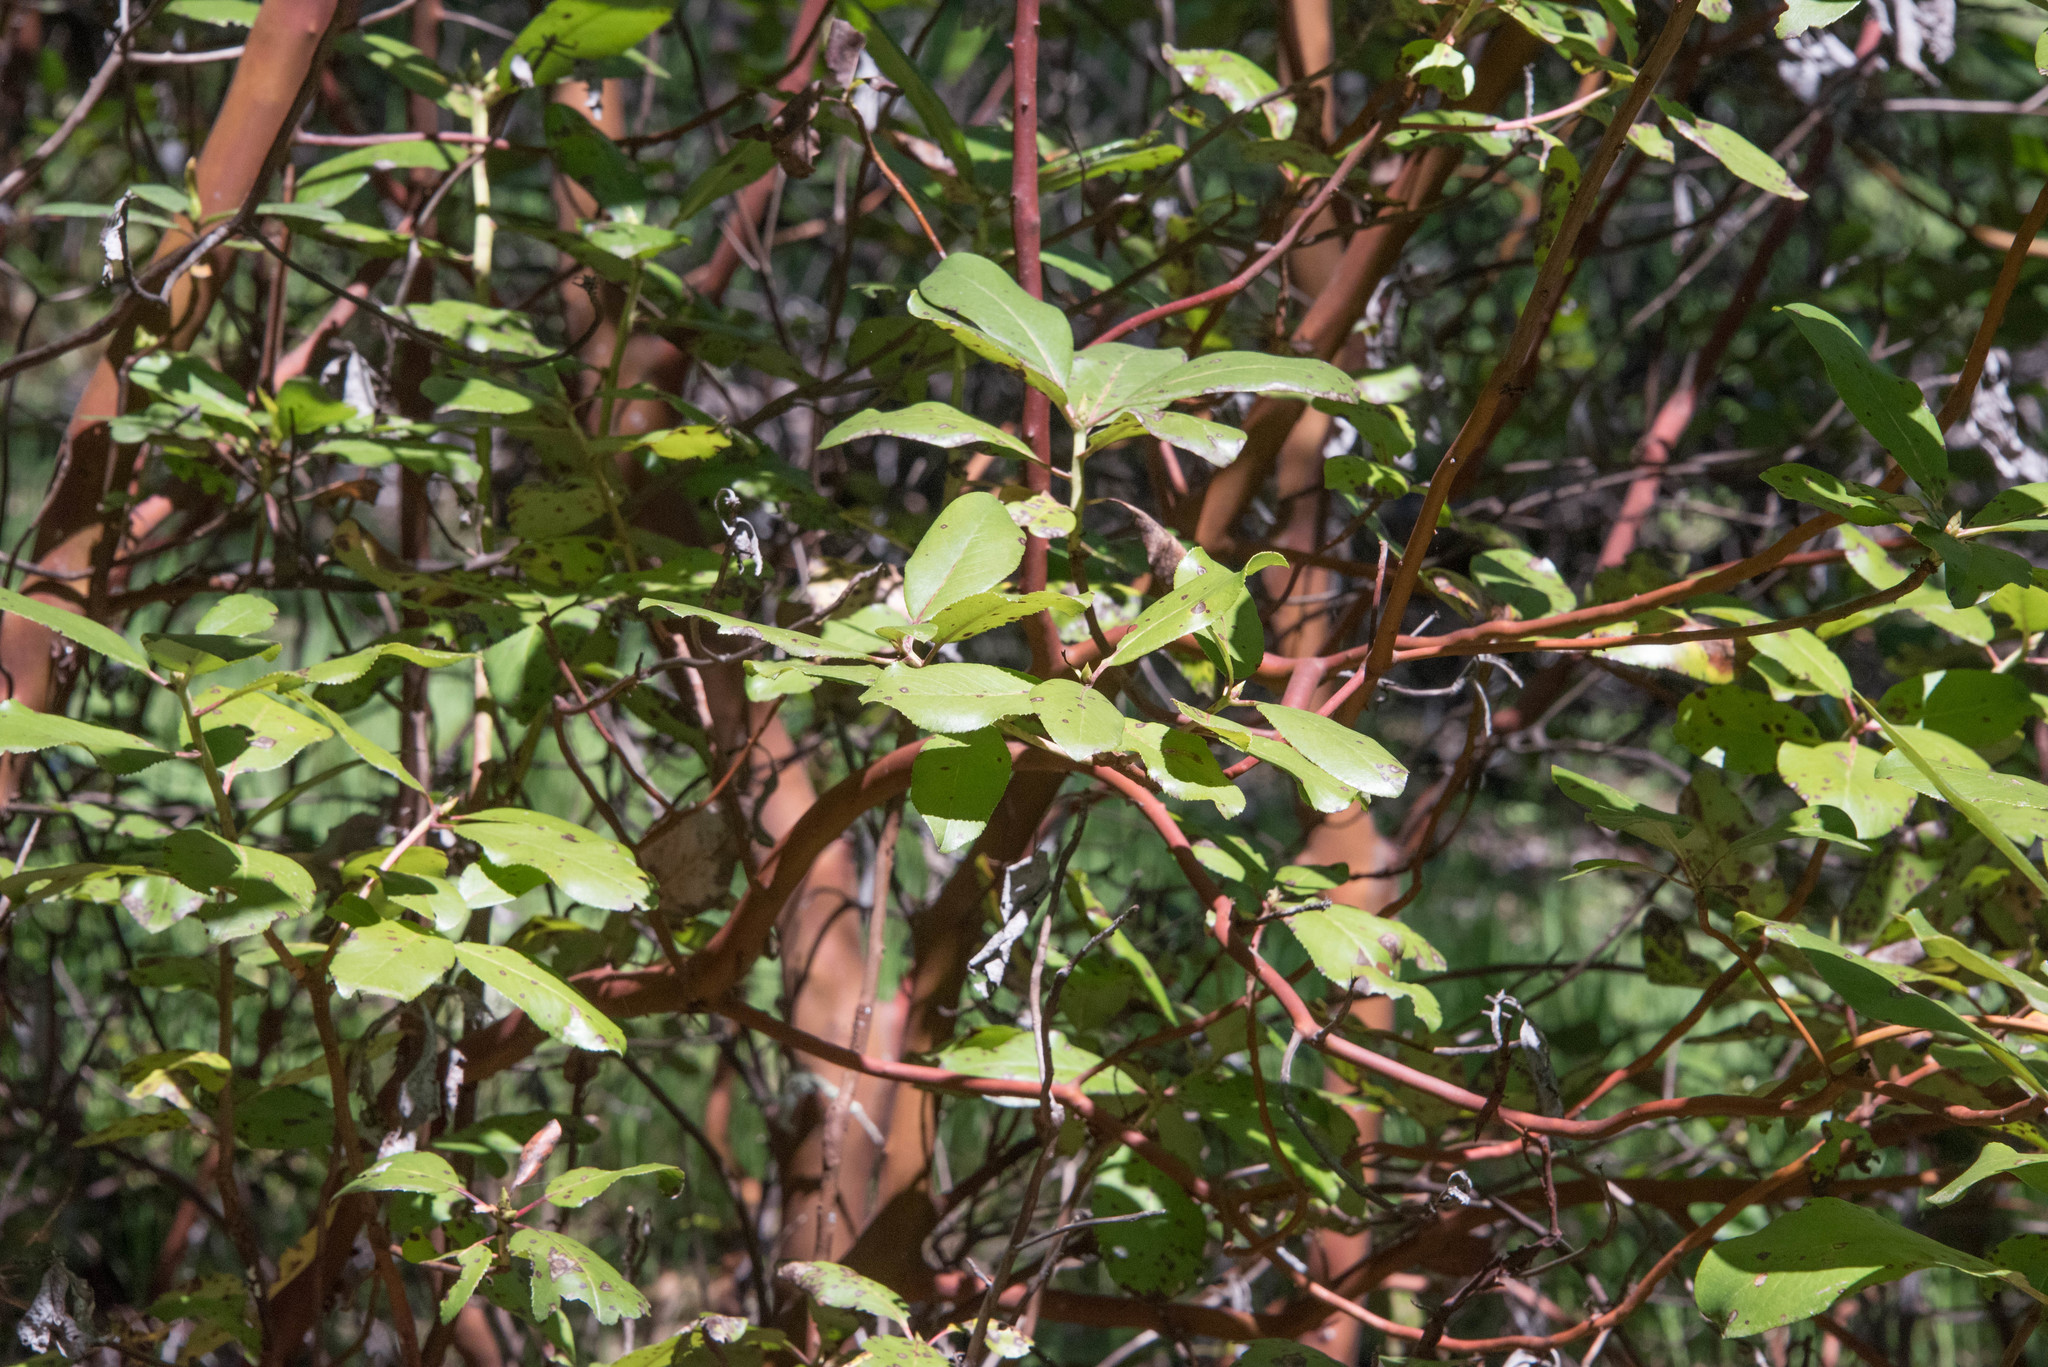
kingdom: Plantae
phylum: Tracheophyta
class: Magnoliopsida
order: Ericales
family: Ericaceae
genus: Arbutus
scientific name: Arbutus menziesii
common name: Pacific madrone
